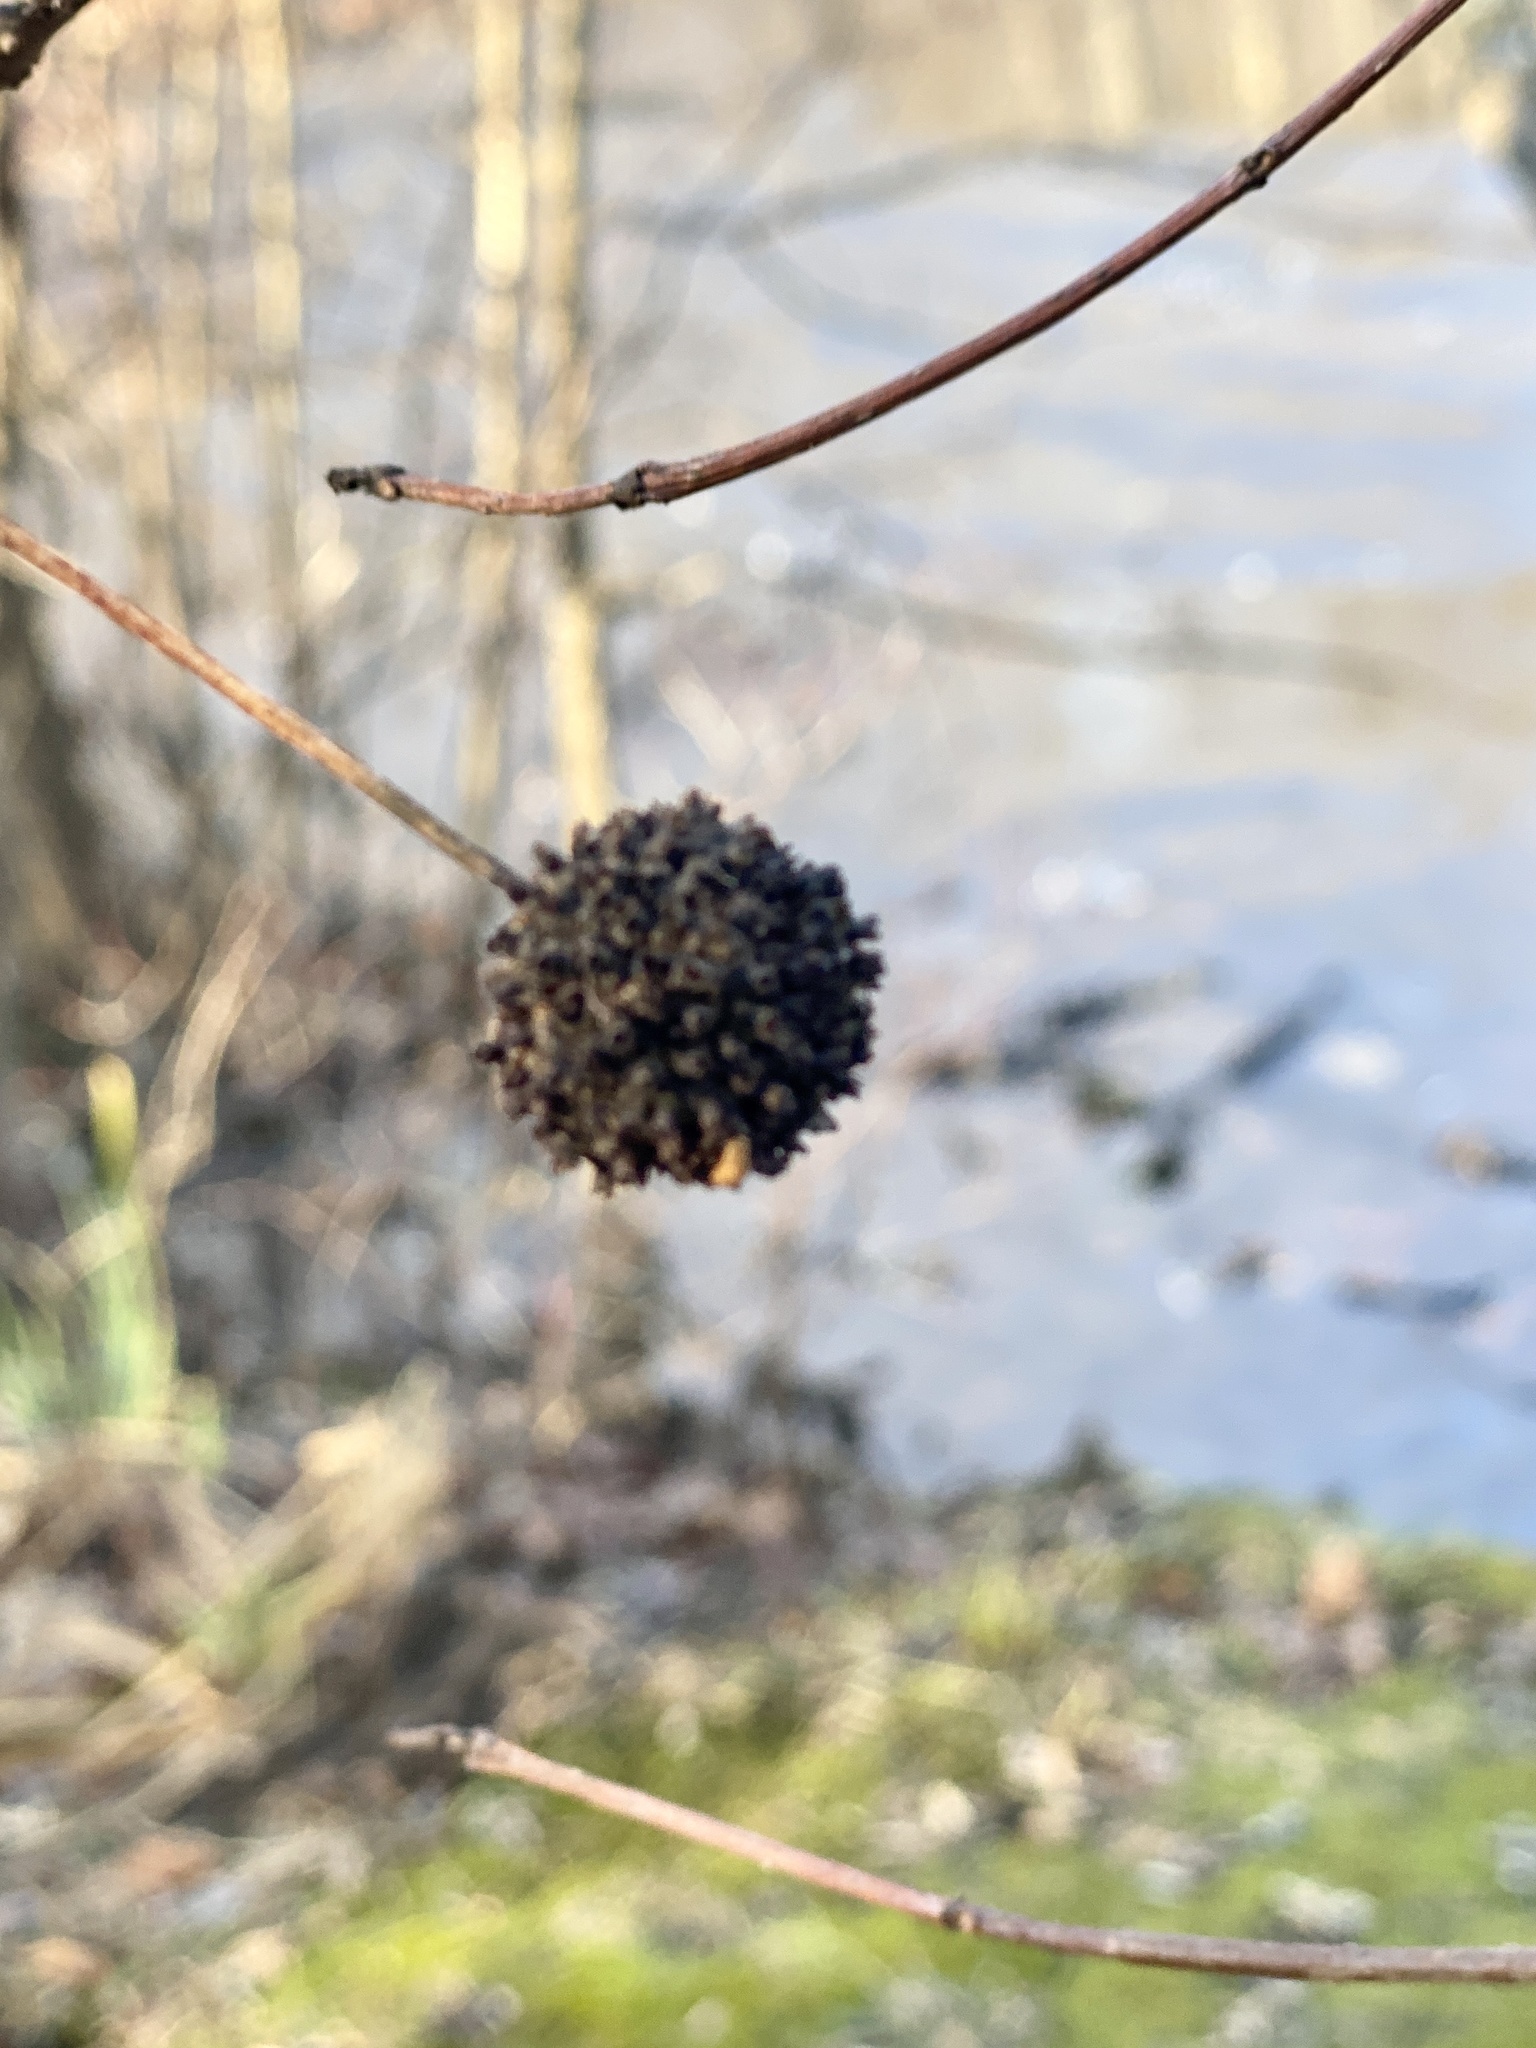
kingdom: Plantae
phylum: Tracheophyta
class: Magnoliopsida
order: Gentianales
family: Rubiaceae
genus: Cephalanthus
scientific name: Cephalanthus occidentalis
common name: Button-willow
